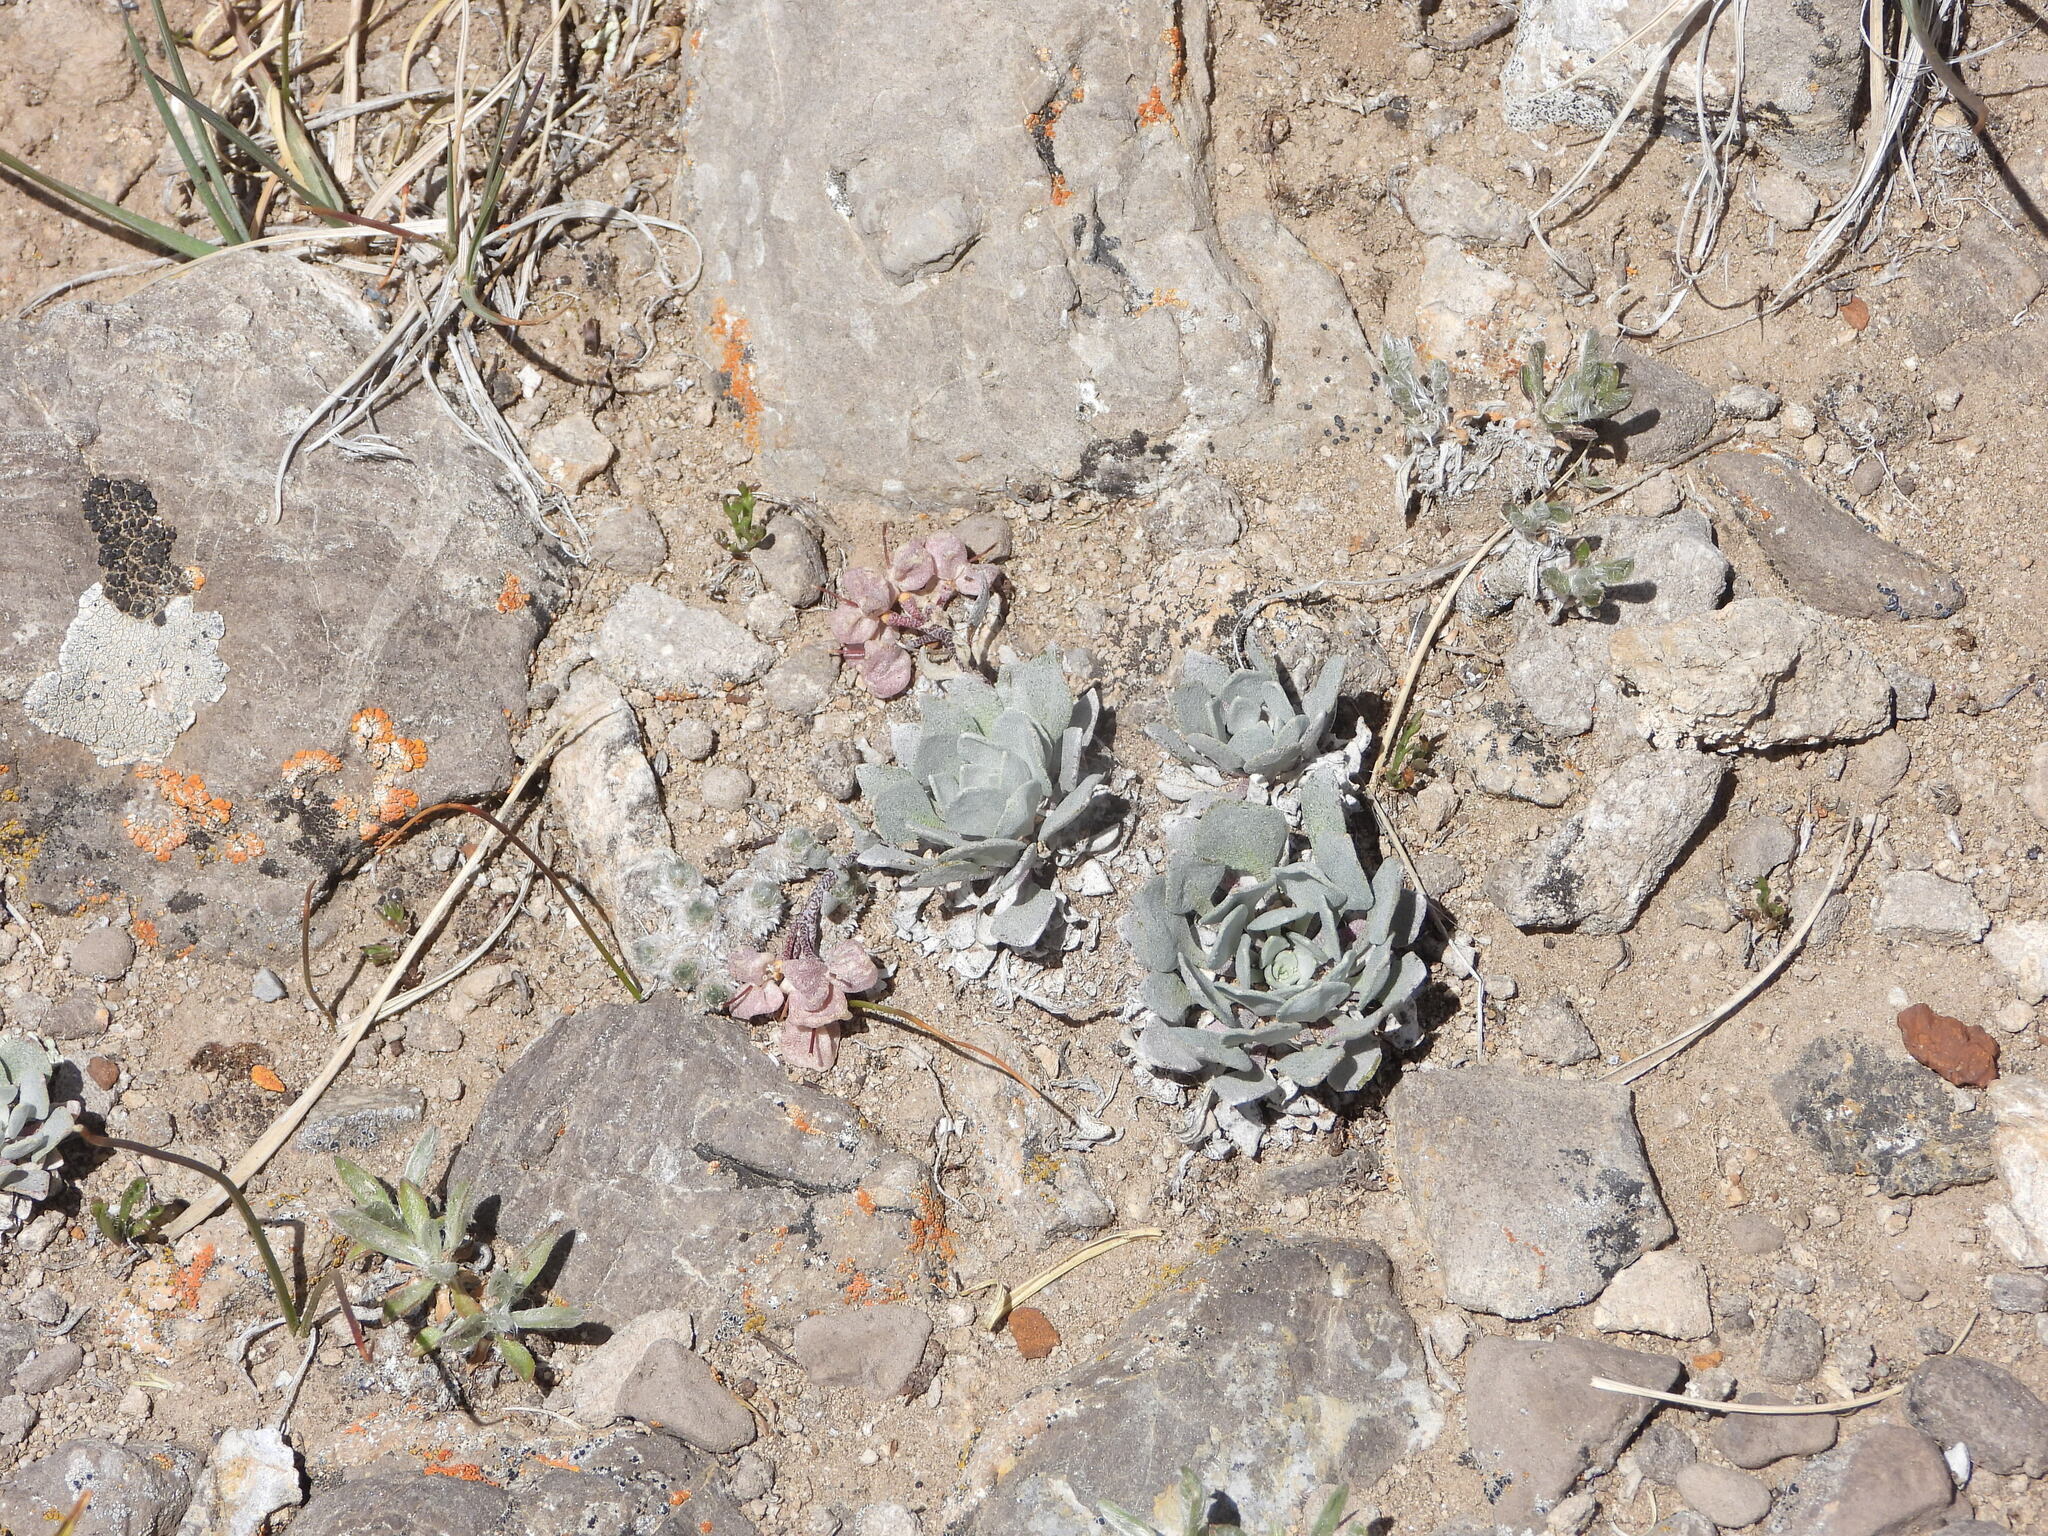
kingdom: Plantae
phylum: Tracheophyta
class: Magnoliopsida
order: Brassicales
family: Brassicaceae
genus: Physaria
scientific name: Physaria alpina
